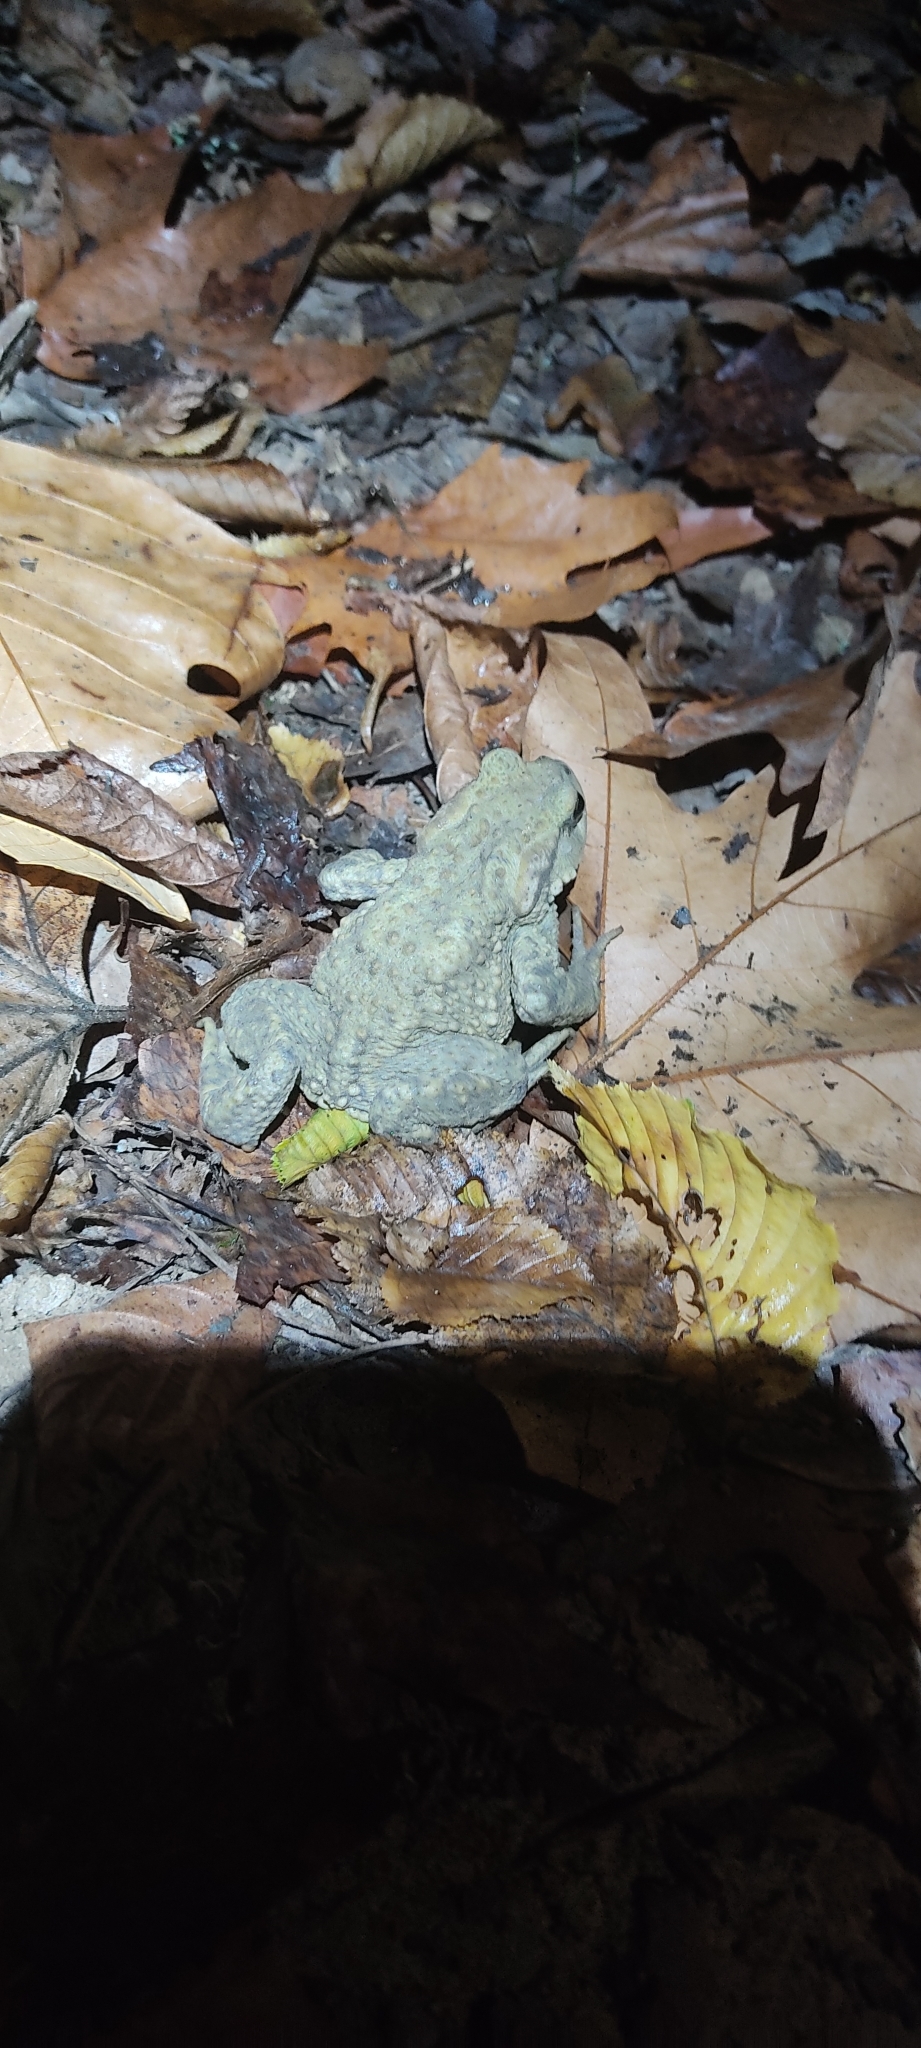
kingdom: Animalia
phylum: Chordata
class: Amphibia
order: Anura
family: Bufonidae
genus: Bufo
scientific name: Bufo spinosus
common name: Western common toad
